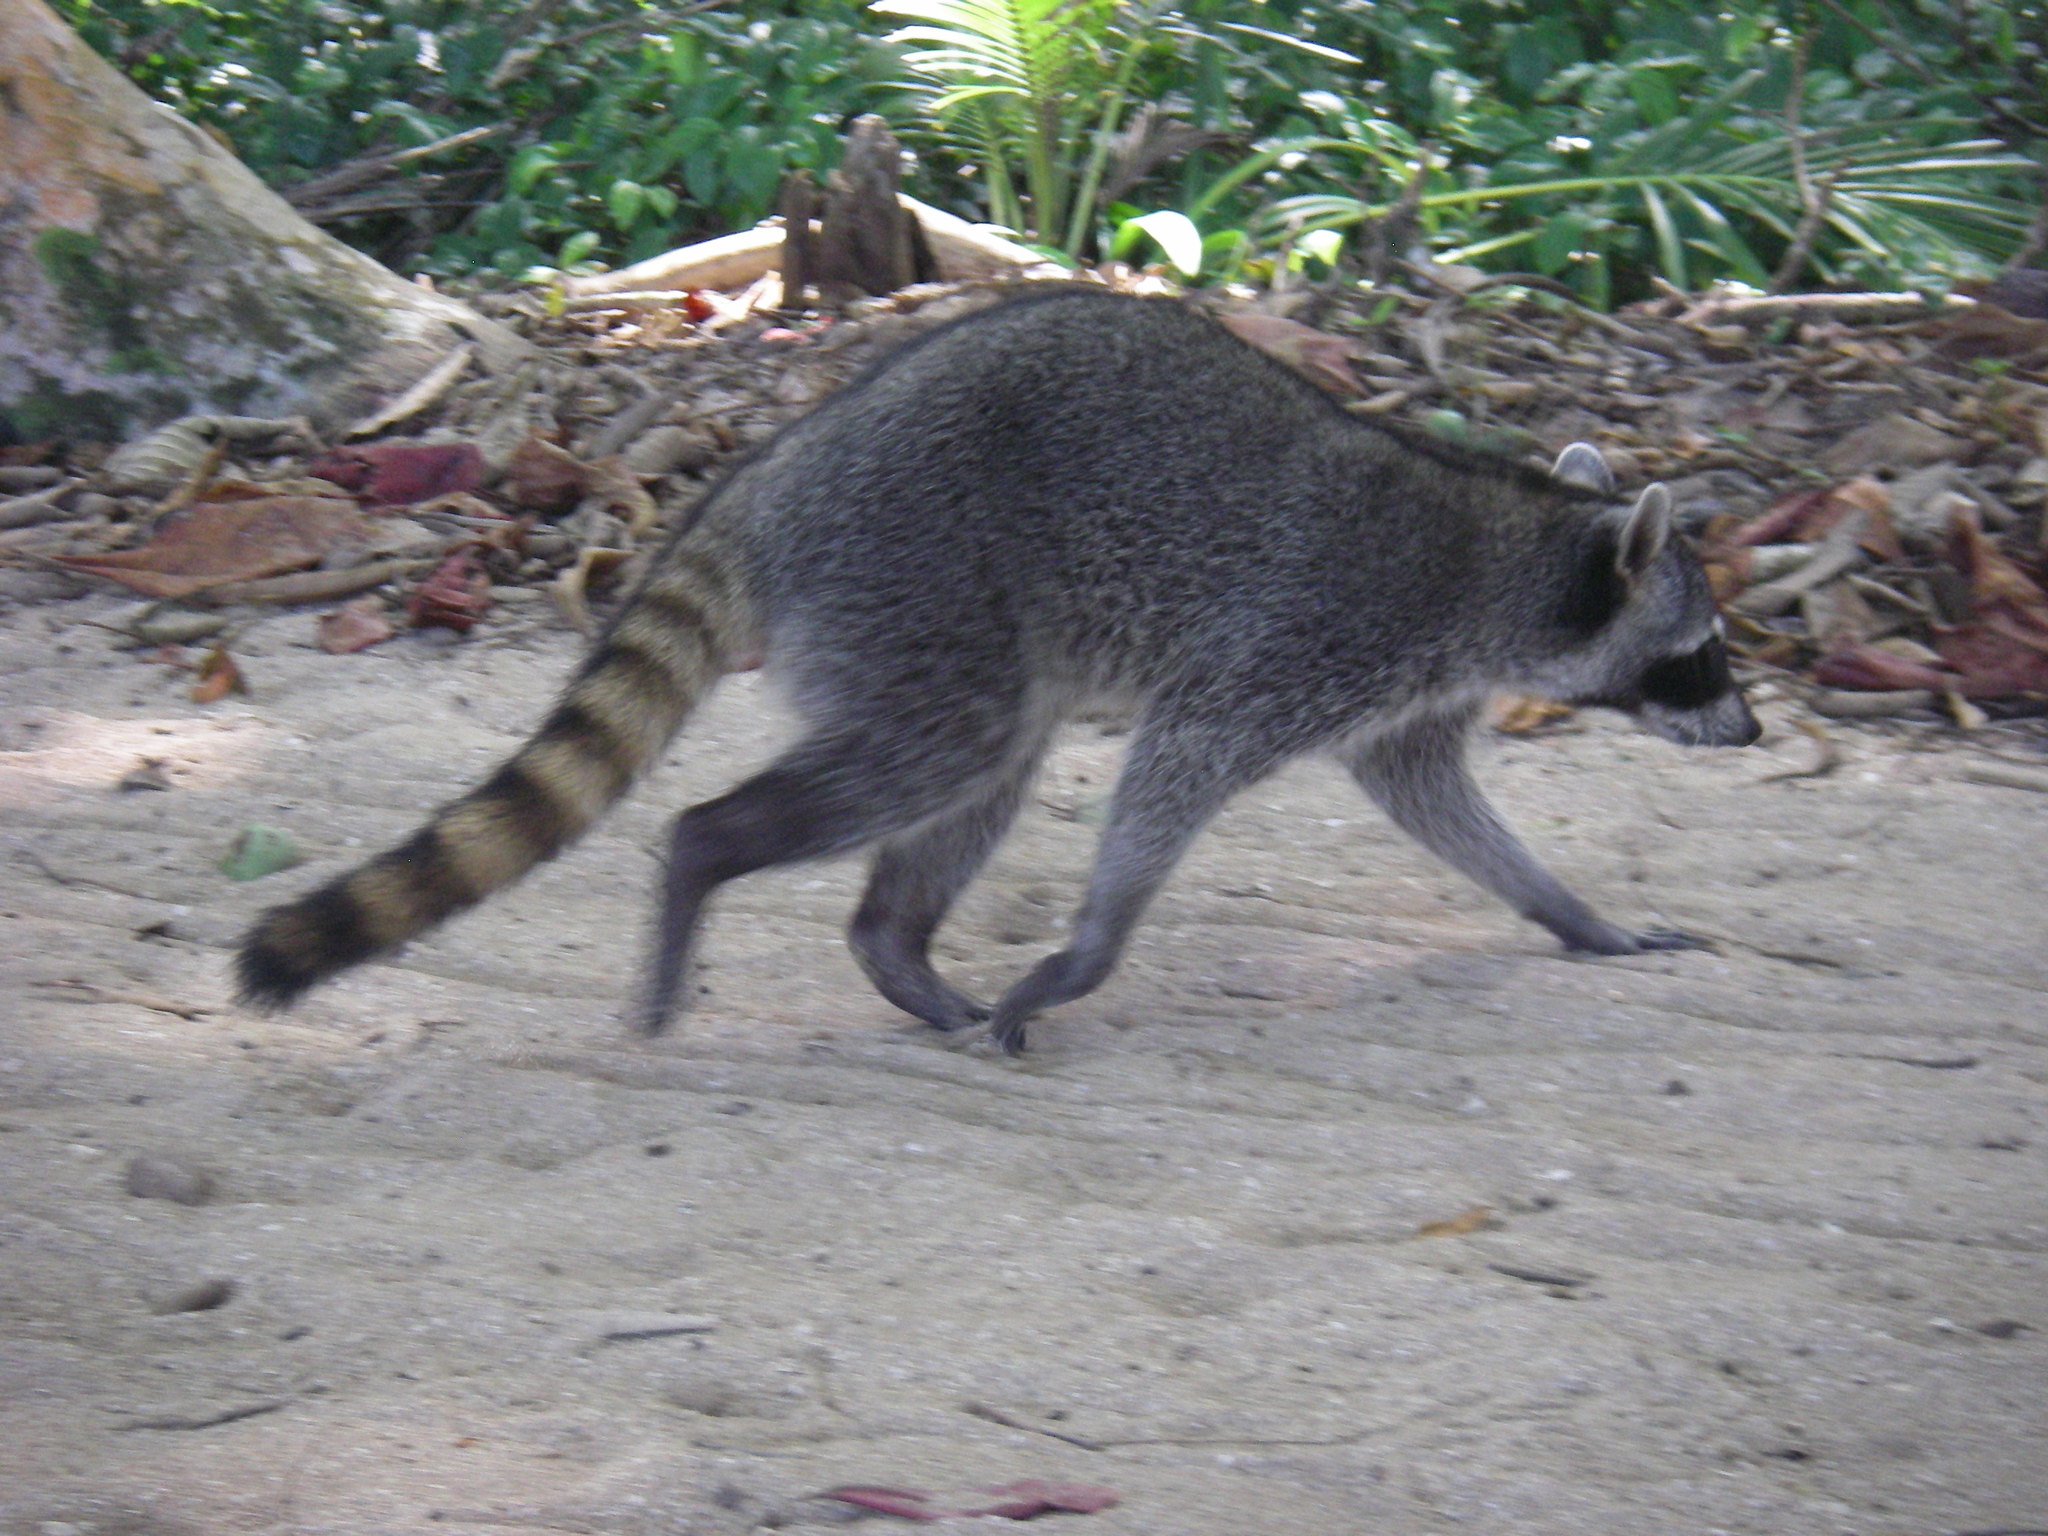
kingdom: Animalia
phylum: Chordata
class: Mammalia
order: Carnivora
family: Procyonidae
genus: Procyon
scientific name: Procyon lotor
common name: Raccoon
